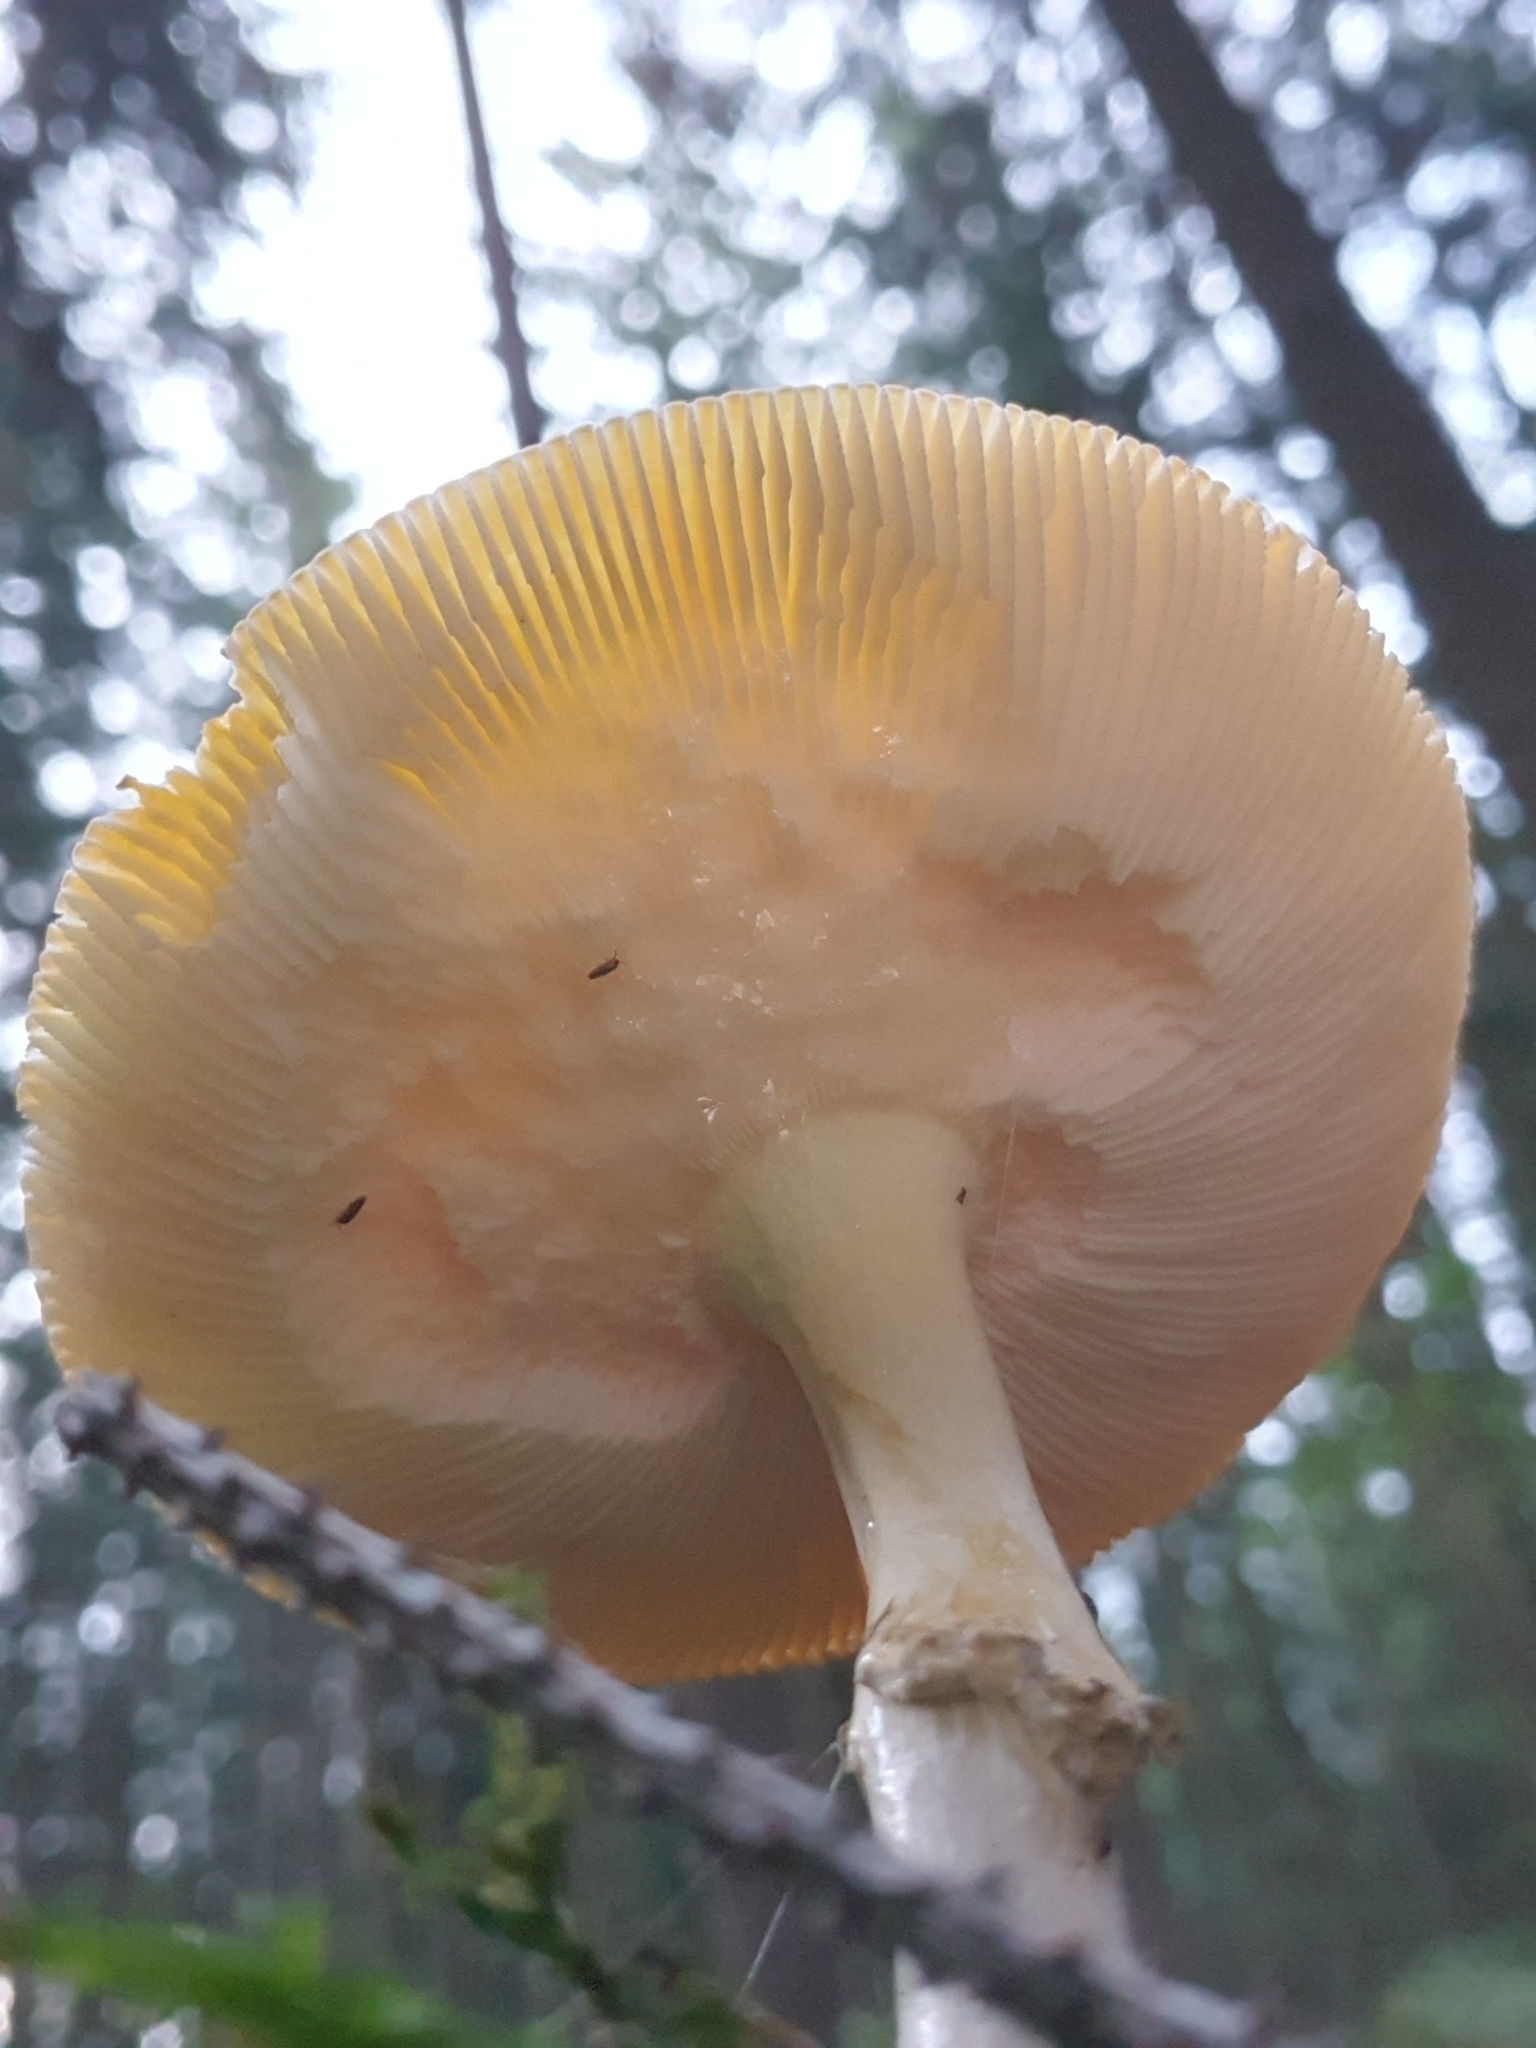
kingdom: Fungi
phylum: Basidiomycota
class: Agaricomycetes
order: Agaricales
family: Amanitaceae
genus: Amanita
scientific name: Amanita muscaria
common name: Fly agaric
